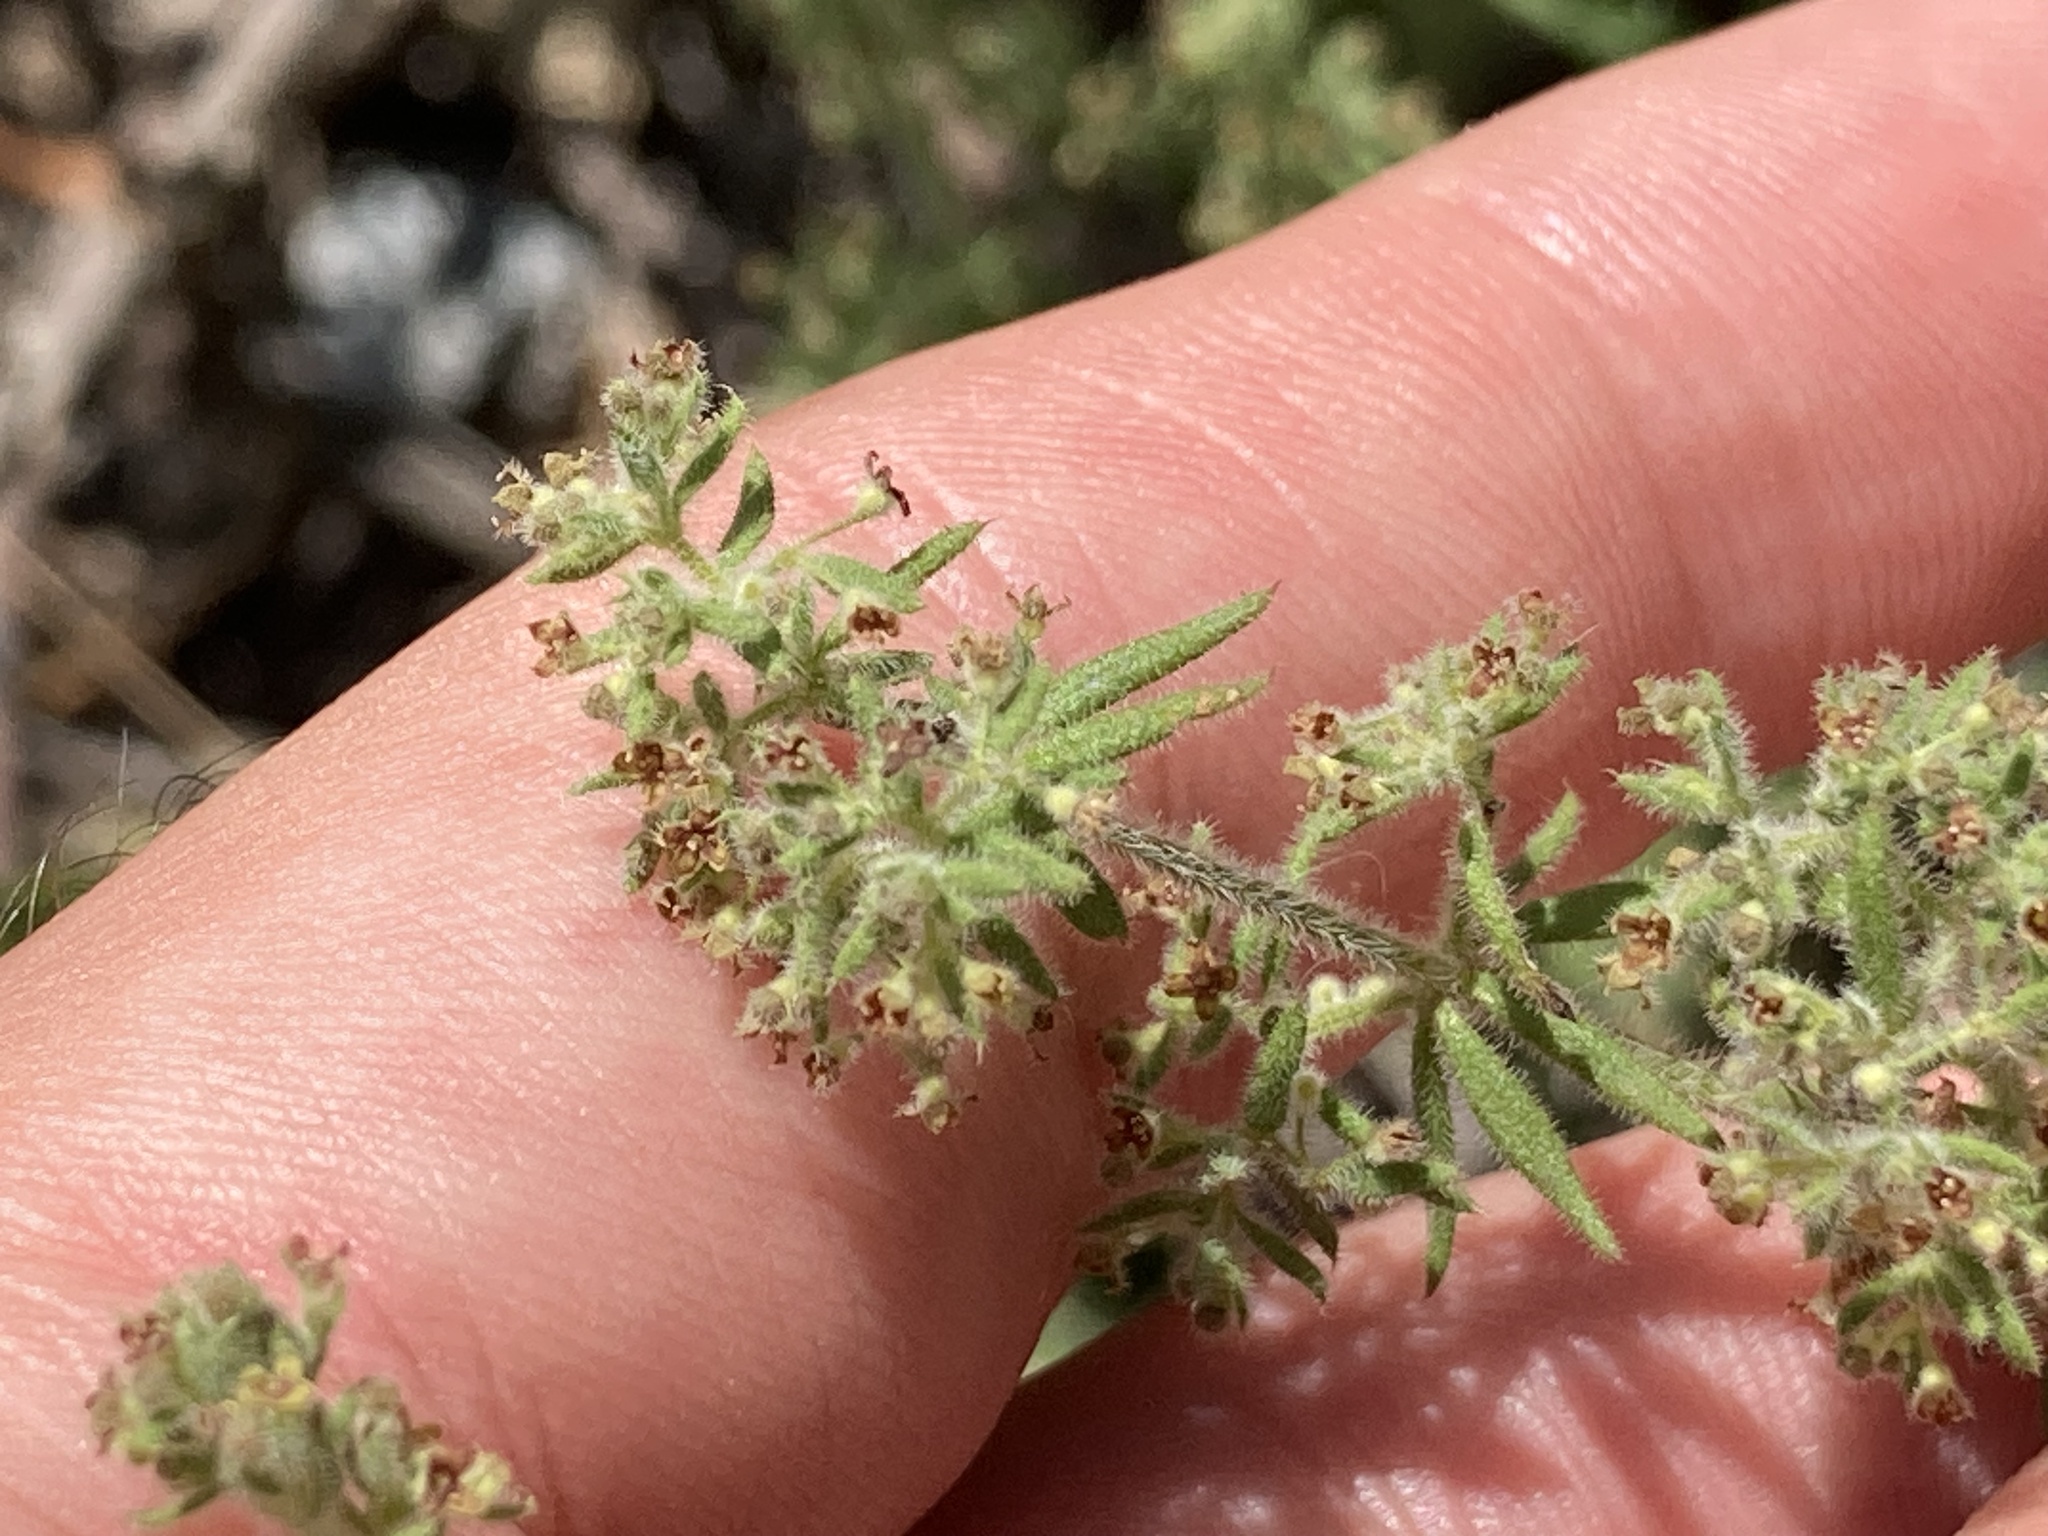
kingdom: Plantae
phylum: Tracheophyta
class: Magnoliopsida
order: Gentianales
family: Rubiaceae
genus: Galium
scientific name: Galium maritimum
